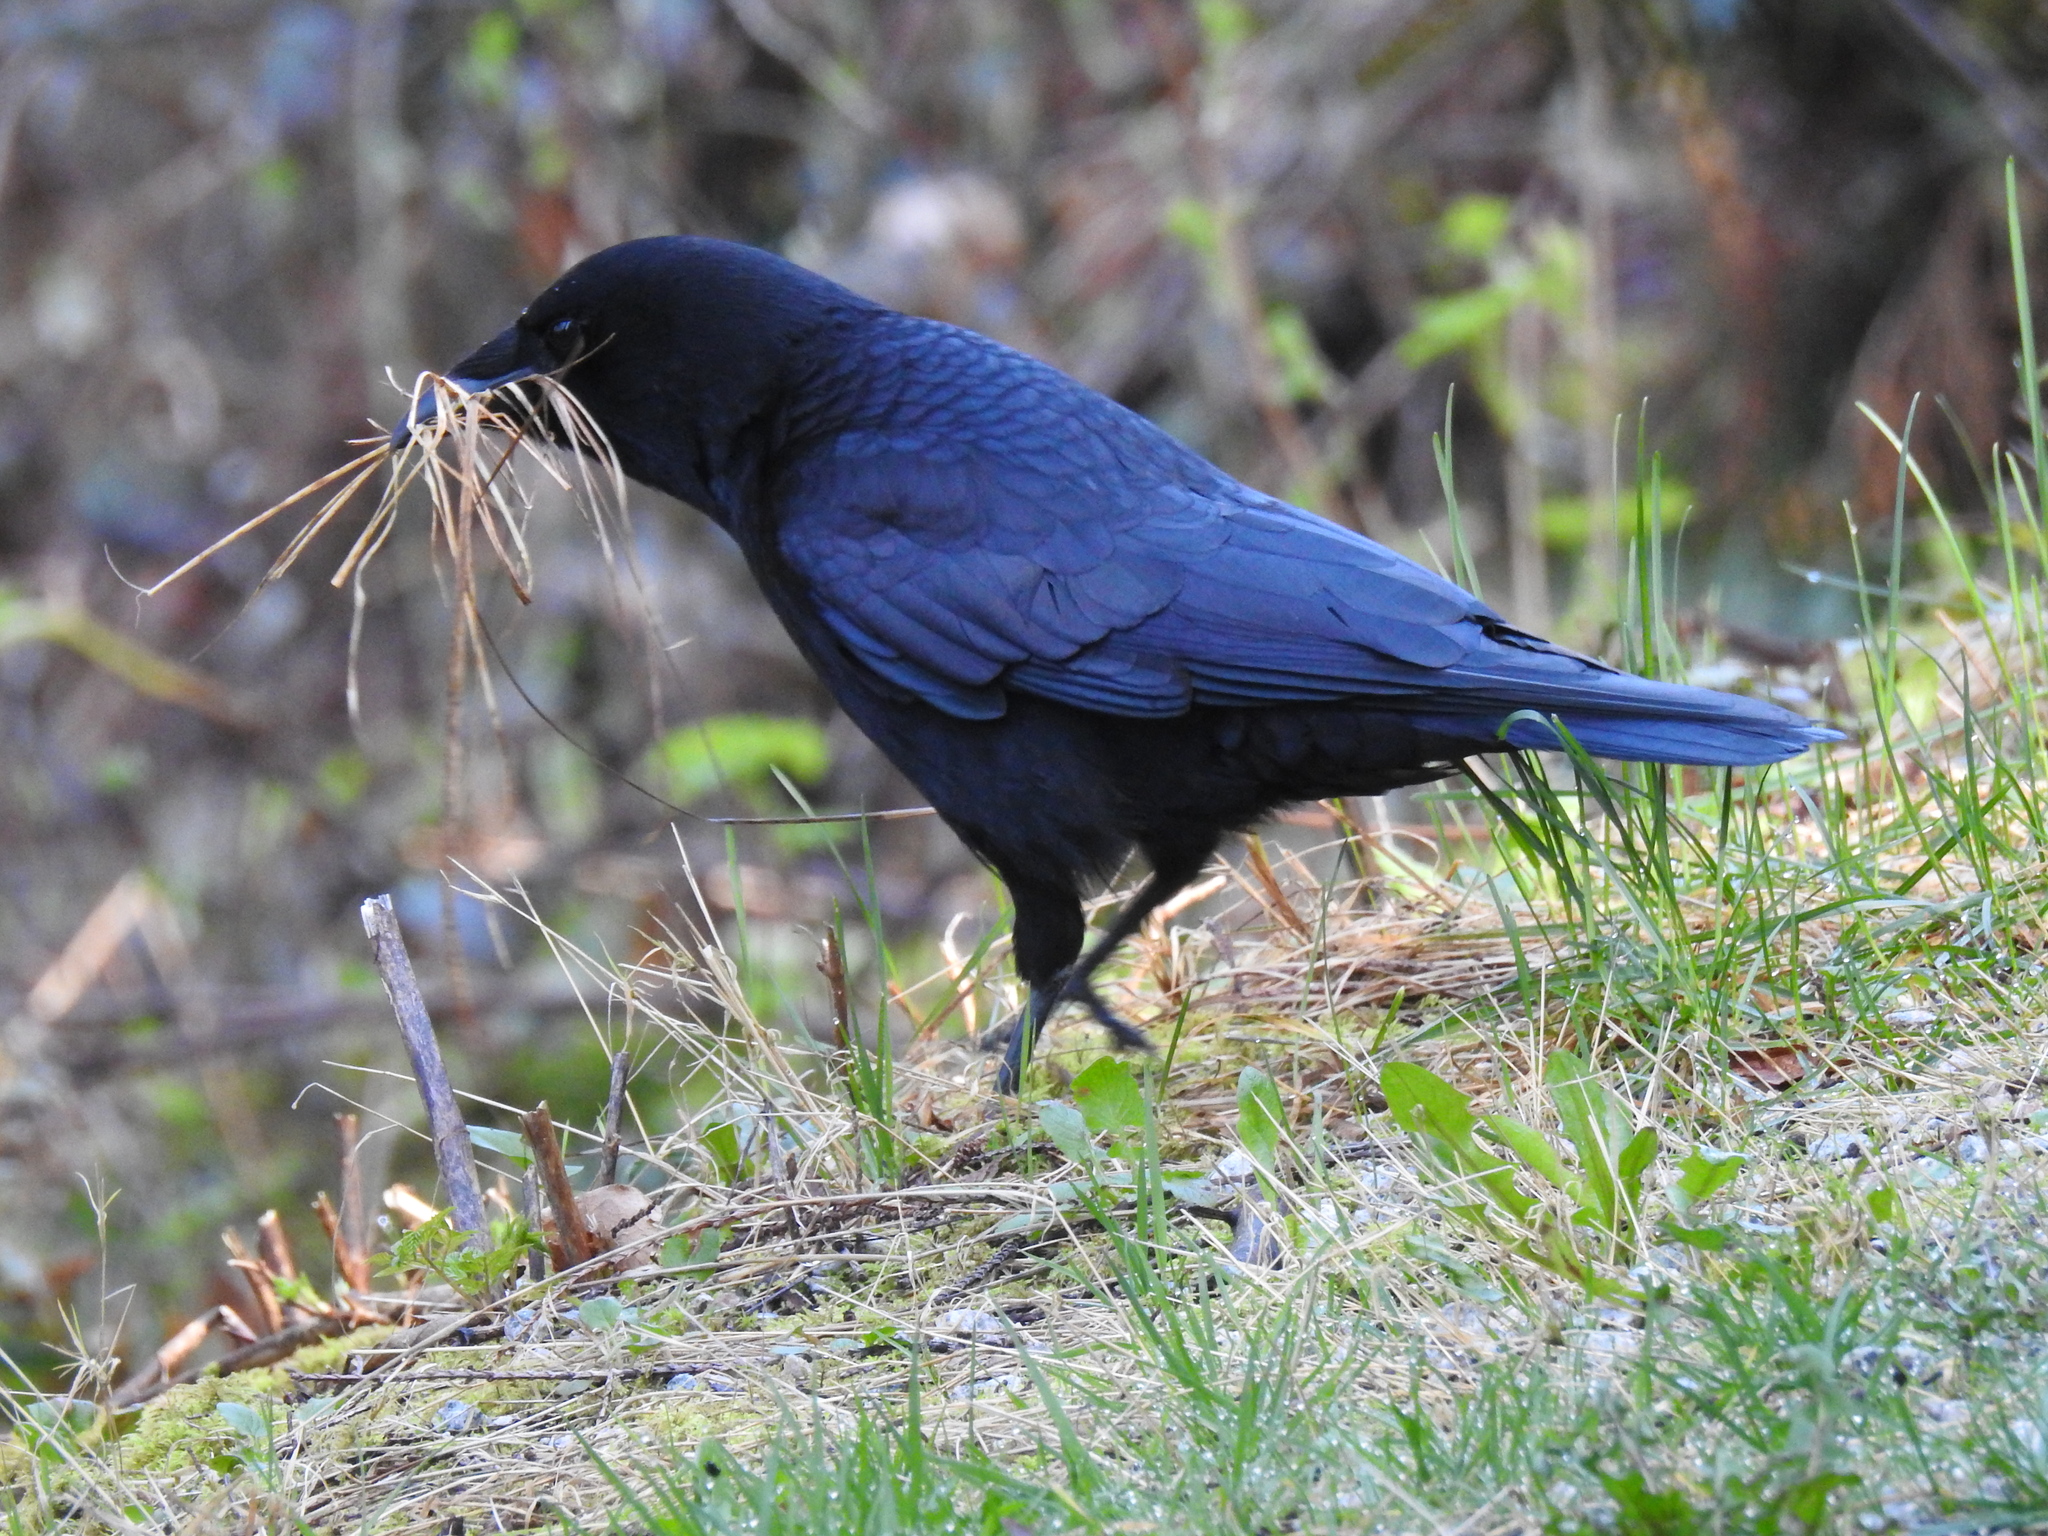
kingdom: Animalia
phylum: Chordata
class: Aves
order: Passeriformes
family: Corvidae
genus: Corvus
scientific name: Corvus brachyrhynchos
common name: American crow
